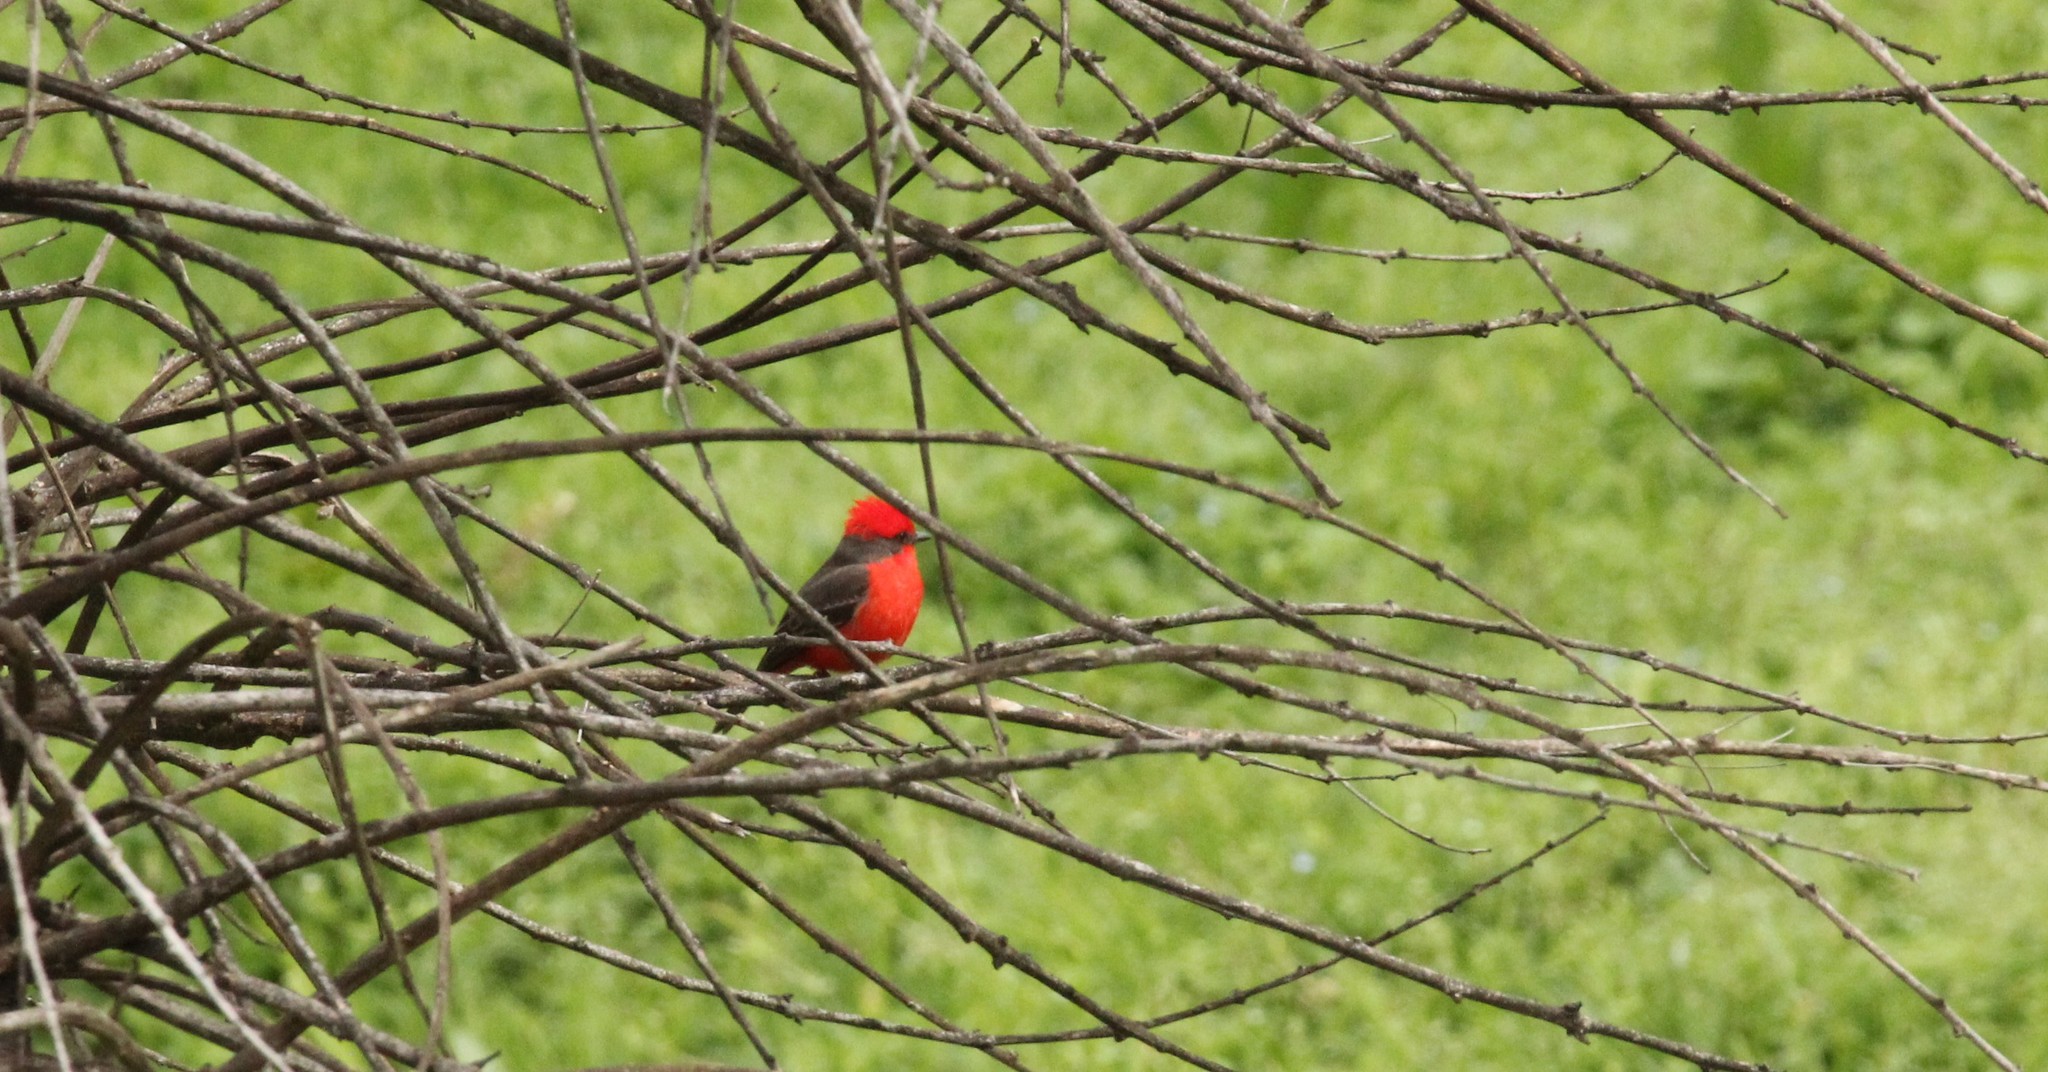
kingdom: Animalia
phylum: Chordata
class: Aves
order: Passeriformes
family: Tyrannidae
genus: Pyrocephalus
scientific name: Pyrocephalus rubinus
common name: Vermilion flycatcher
